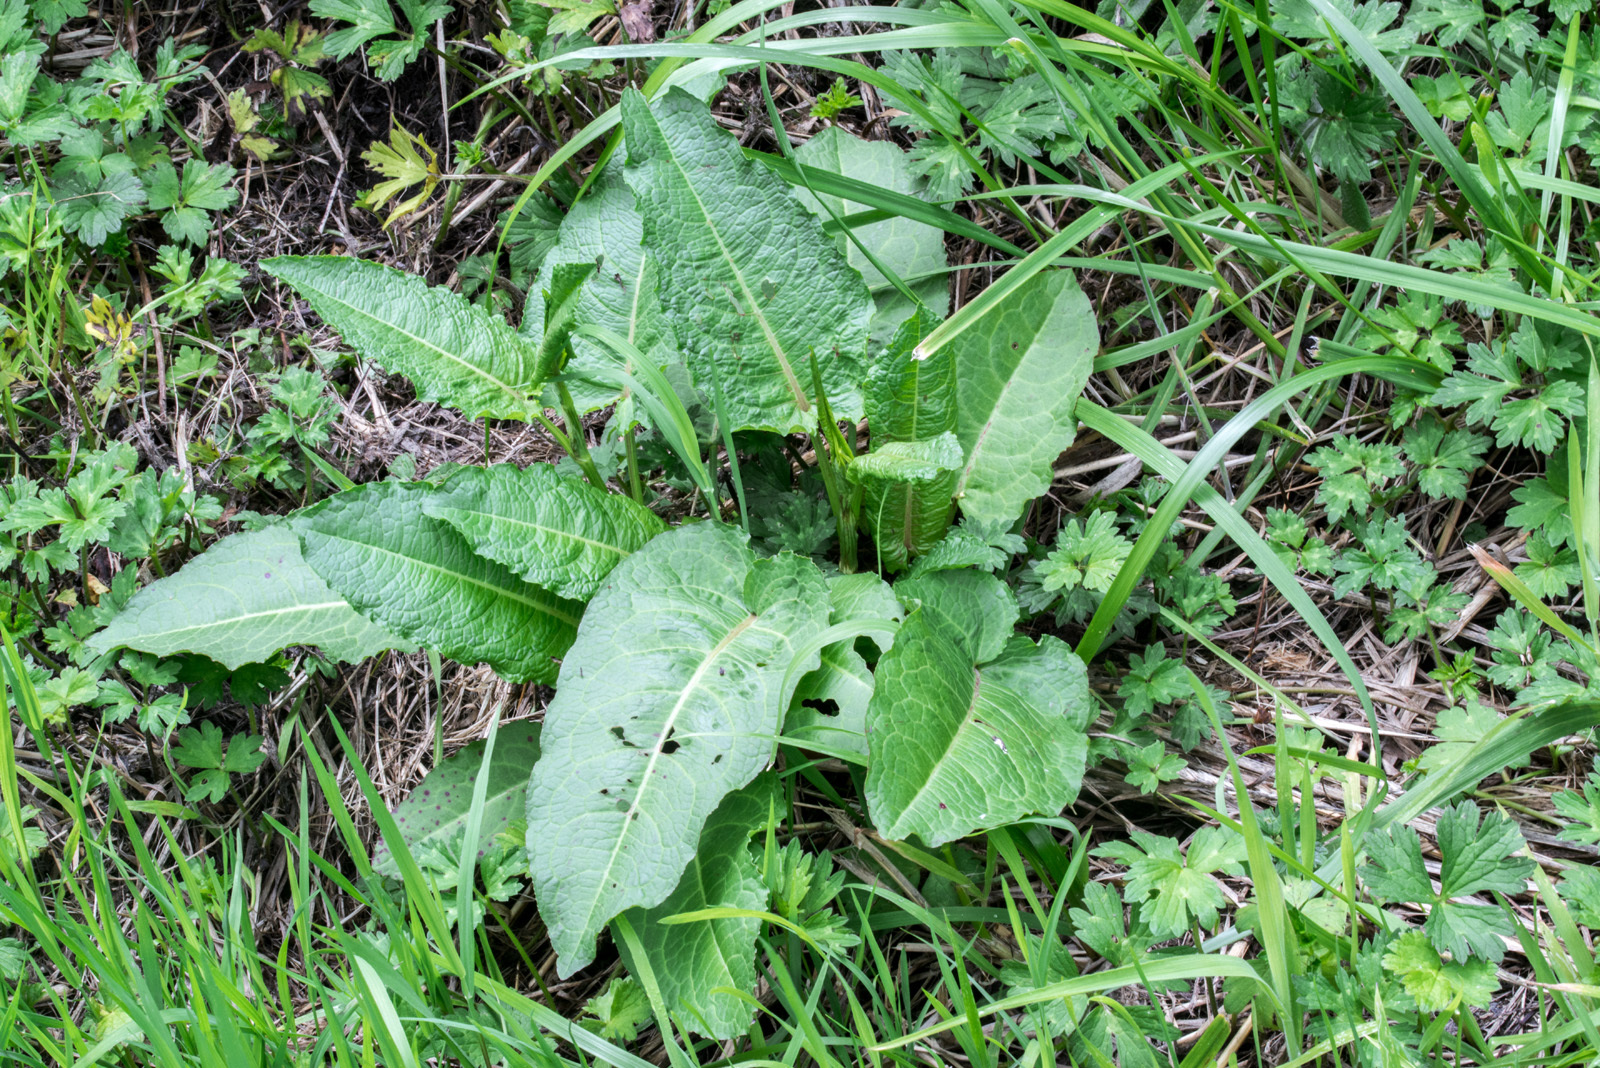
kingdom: Plantae
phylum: Tracheophyta
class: Magnoliopsida
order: Caryophyllales
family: Polygonaceae
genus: Rumex
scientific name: Rumex obtusifolius
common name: Bitter dock
